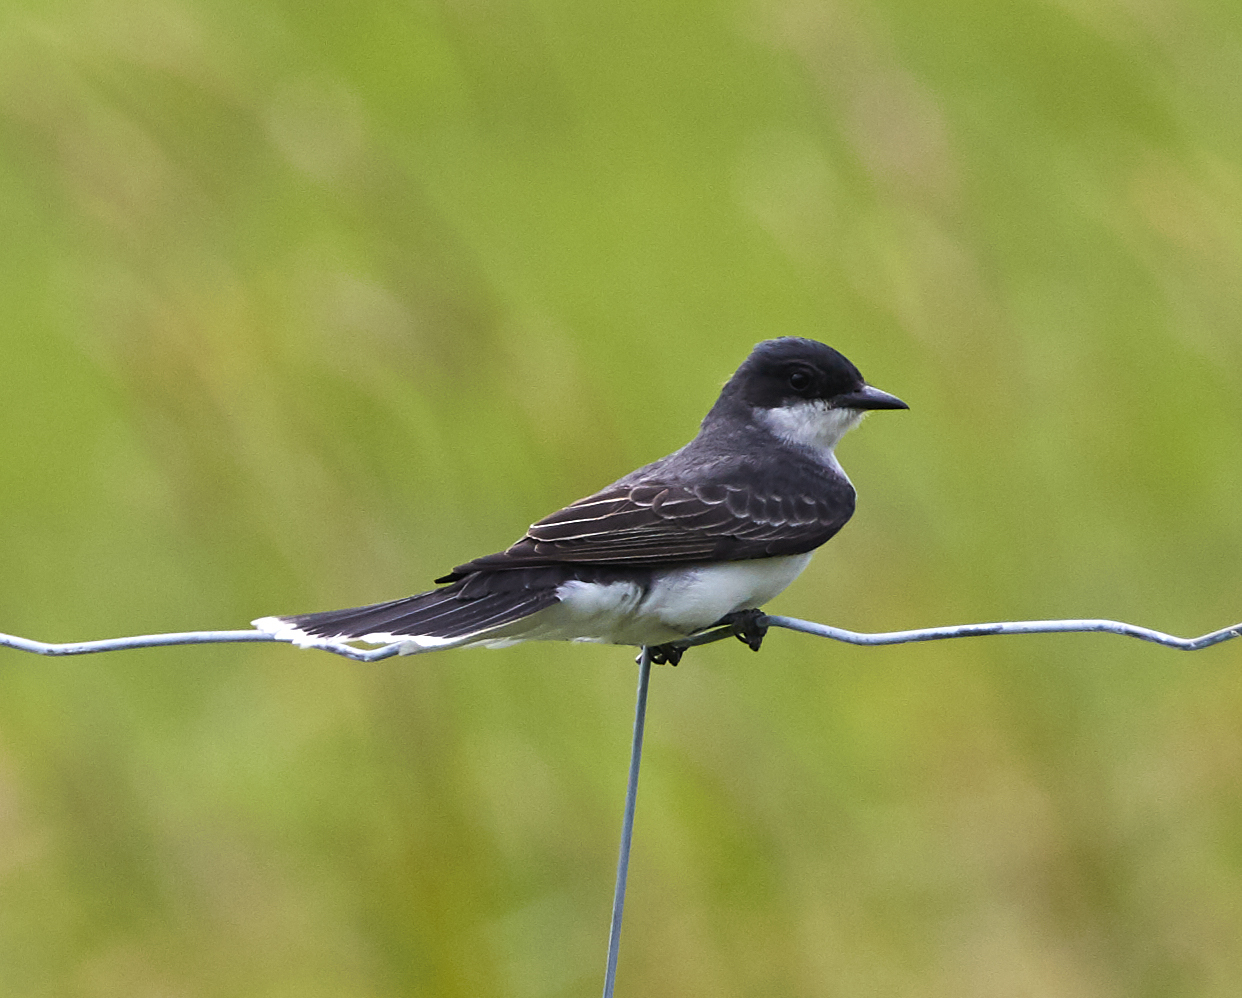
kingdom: Animalia
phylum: Chordata
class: Aves
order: Passeriformes
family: Tyrannidae
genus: Tyrannus
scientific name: Tyrannus tyrannus
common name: Eastern kingbird
